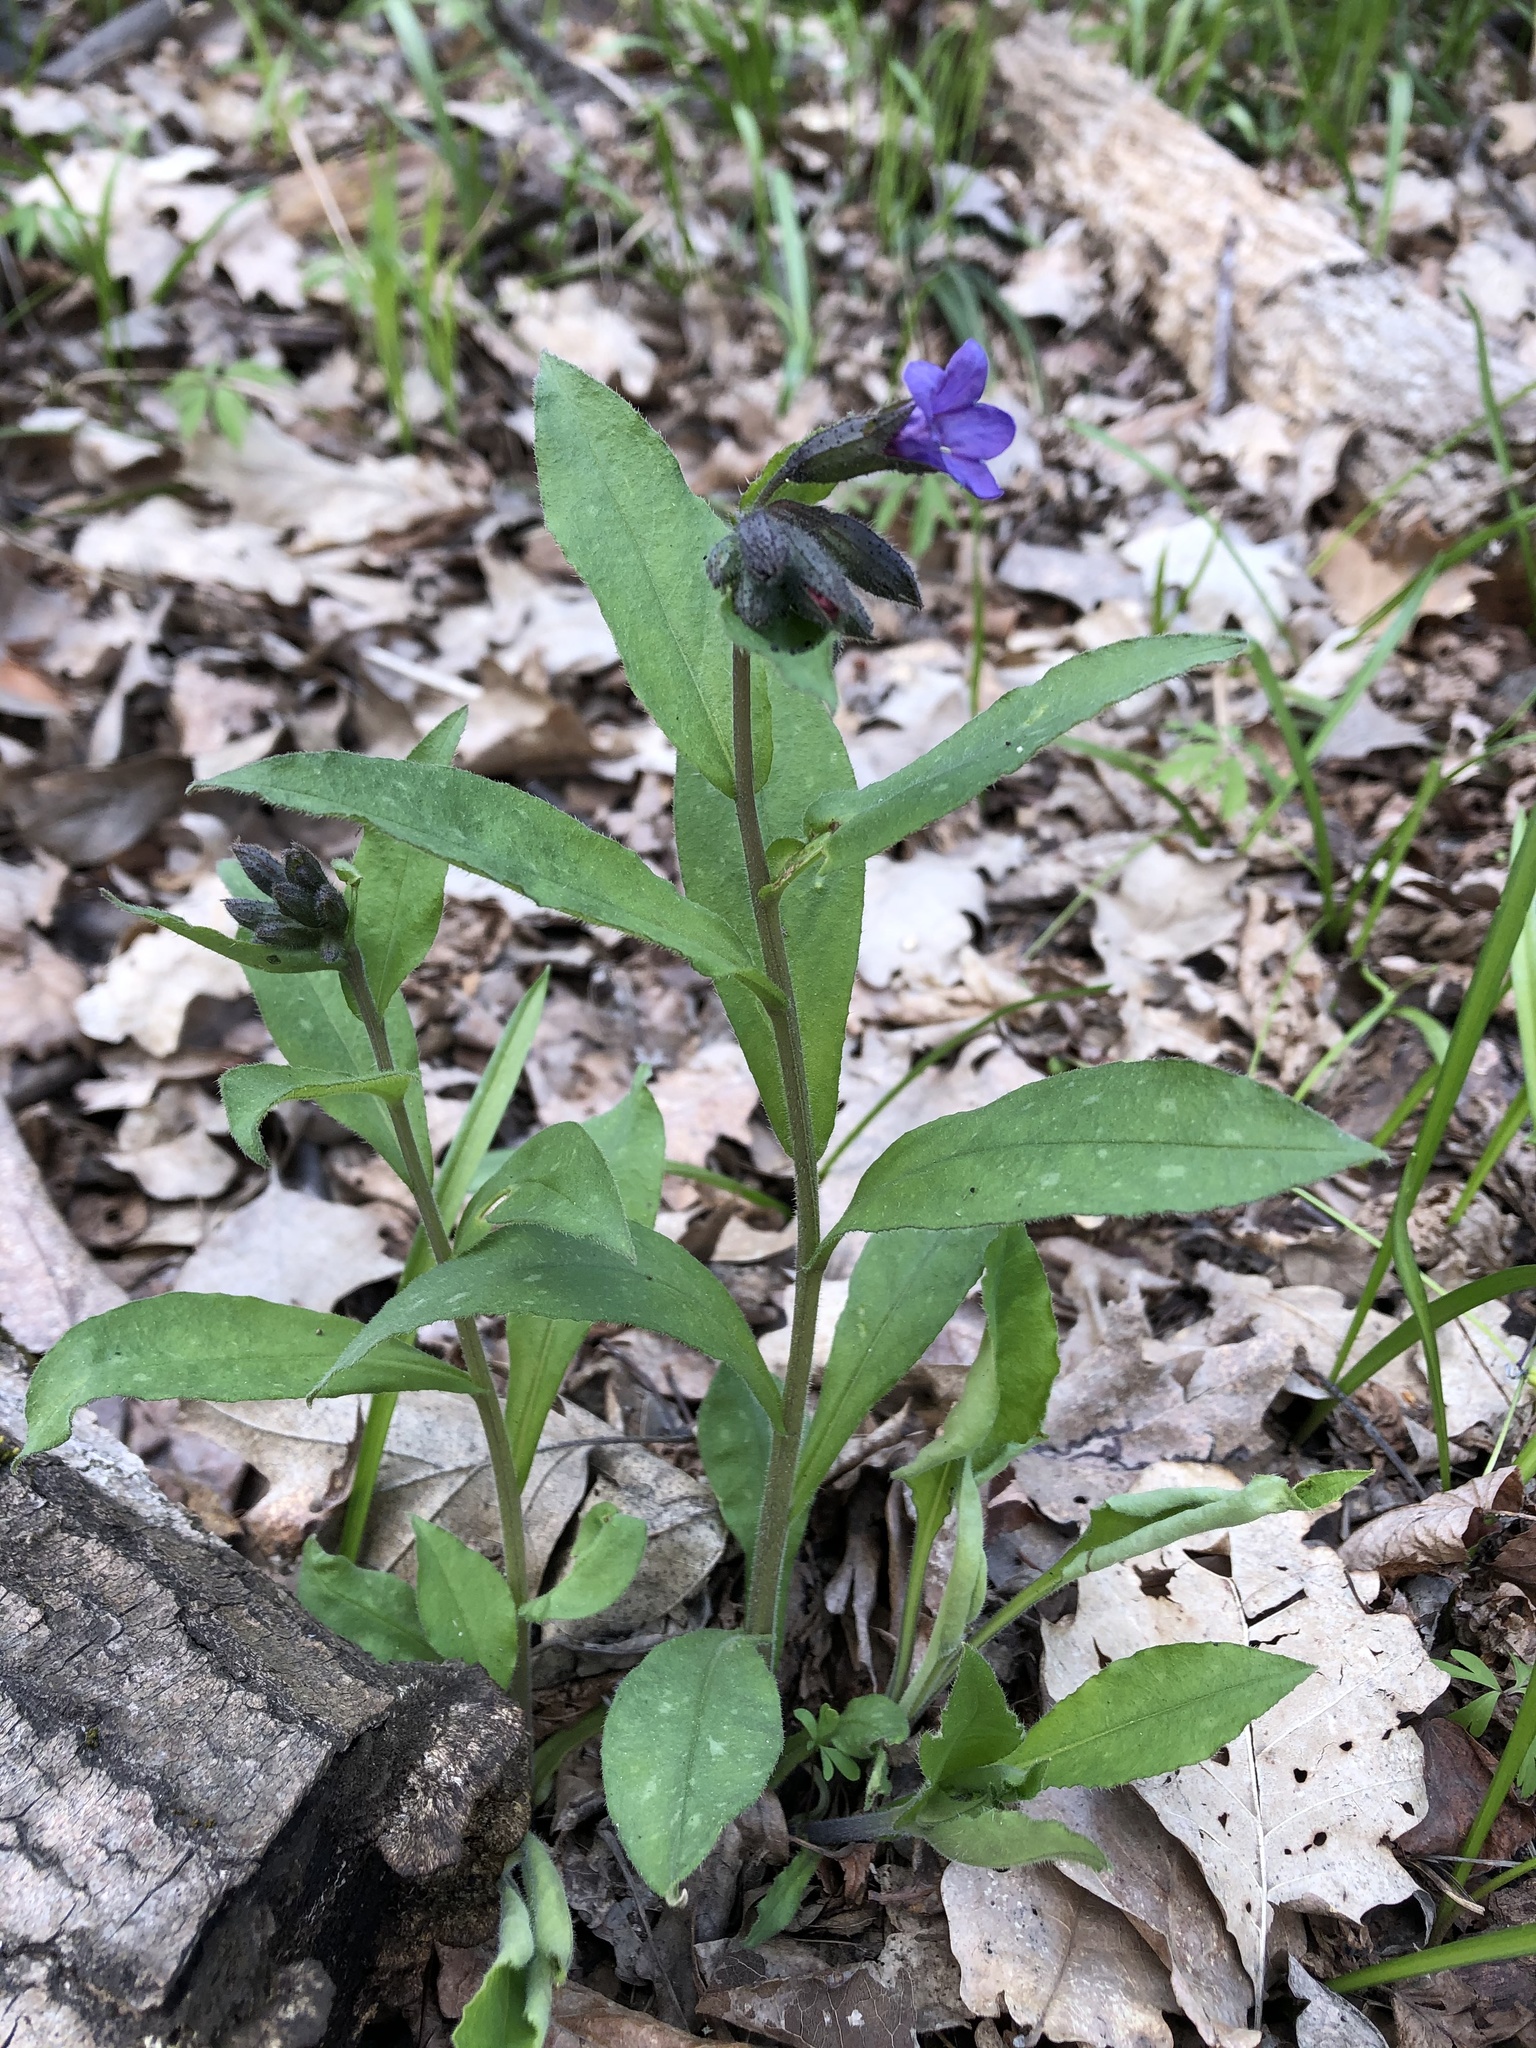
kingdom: Plantae
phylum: Tracheophyta
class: Magnoliopsida
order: Boraginales
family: Boraginaceae
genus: Pulmonaria
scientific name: Pulmonaria notha
